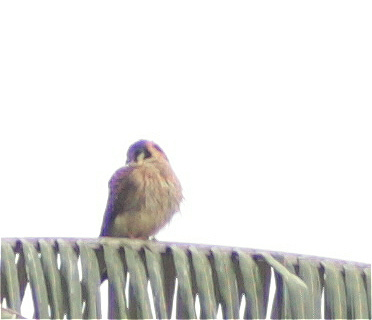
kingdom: Animalia
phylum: Chordata
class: Aves
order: Falconiformes
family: Falconidae
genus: Falco
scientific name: Falco sparverius
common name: American kestrel
